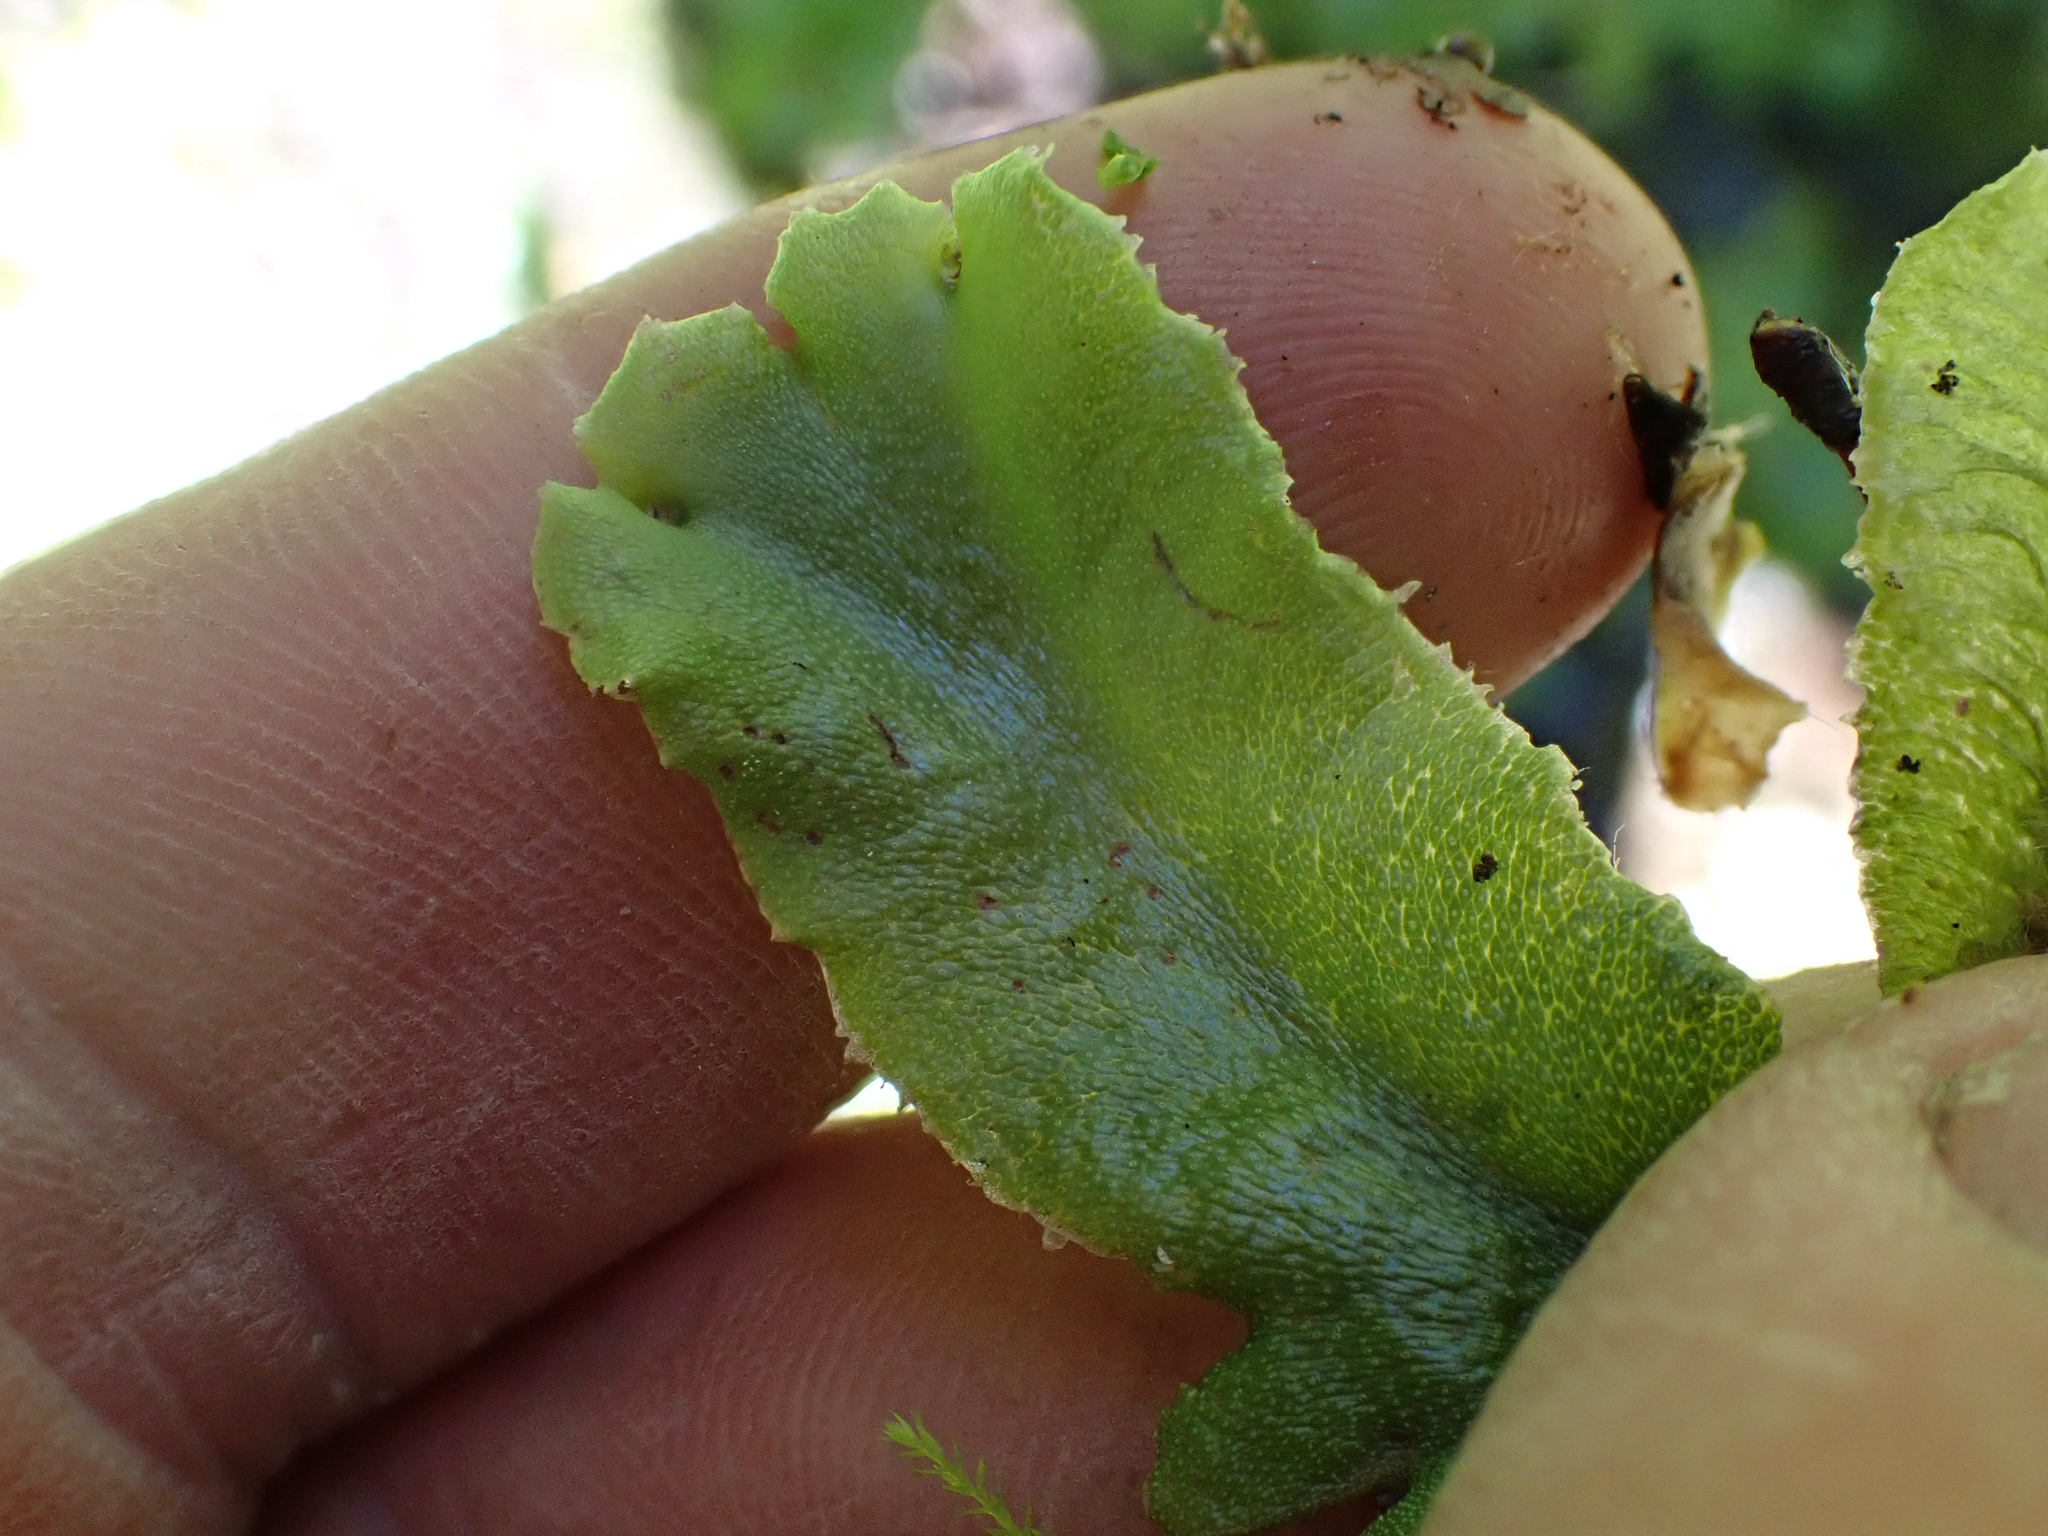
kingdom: Plantae
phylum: Marchantiophyta
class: Marchantiopsida
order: Marchantiales
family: Marchantiaceae
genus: Marchantia
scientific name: Marchantia polymorpha
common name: Common liverwort
